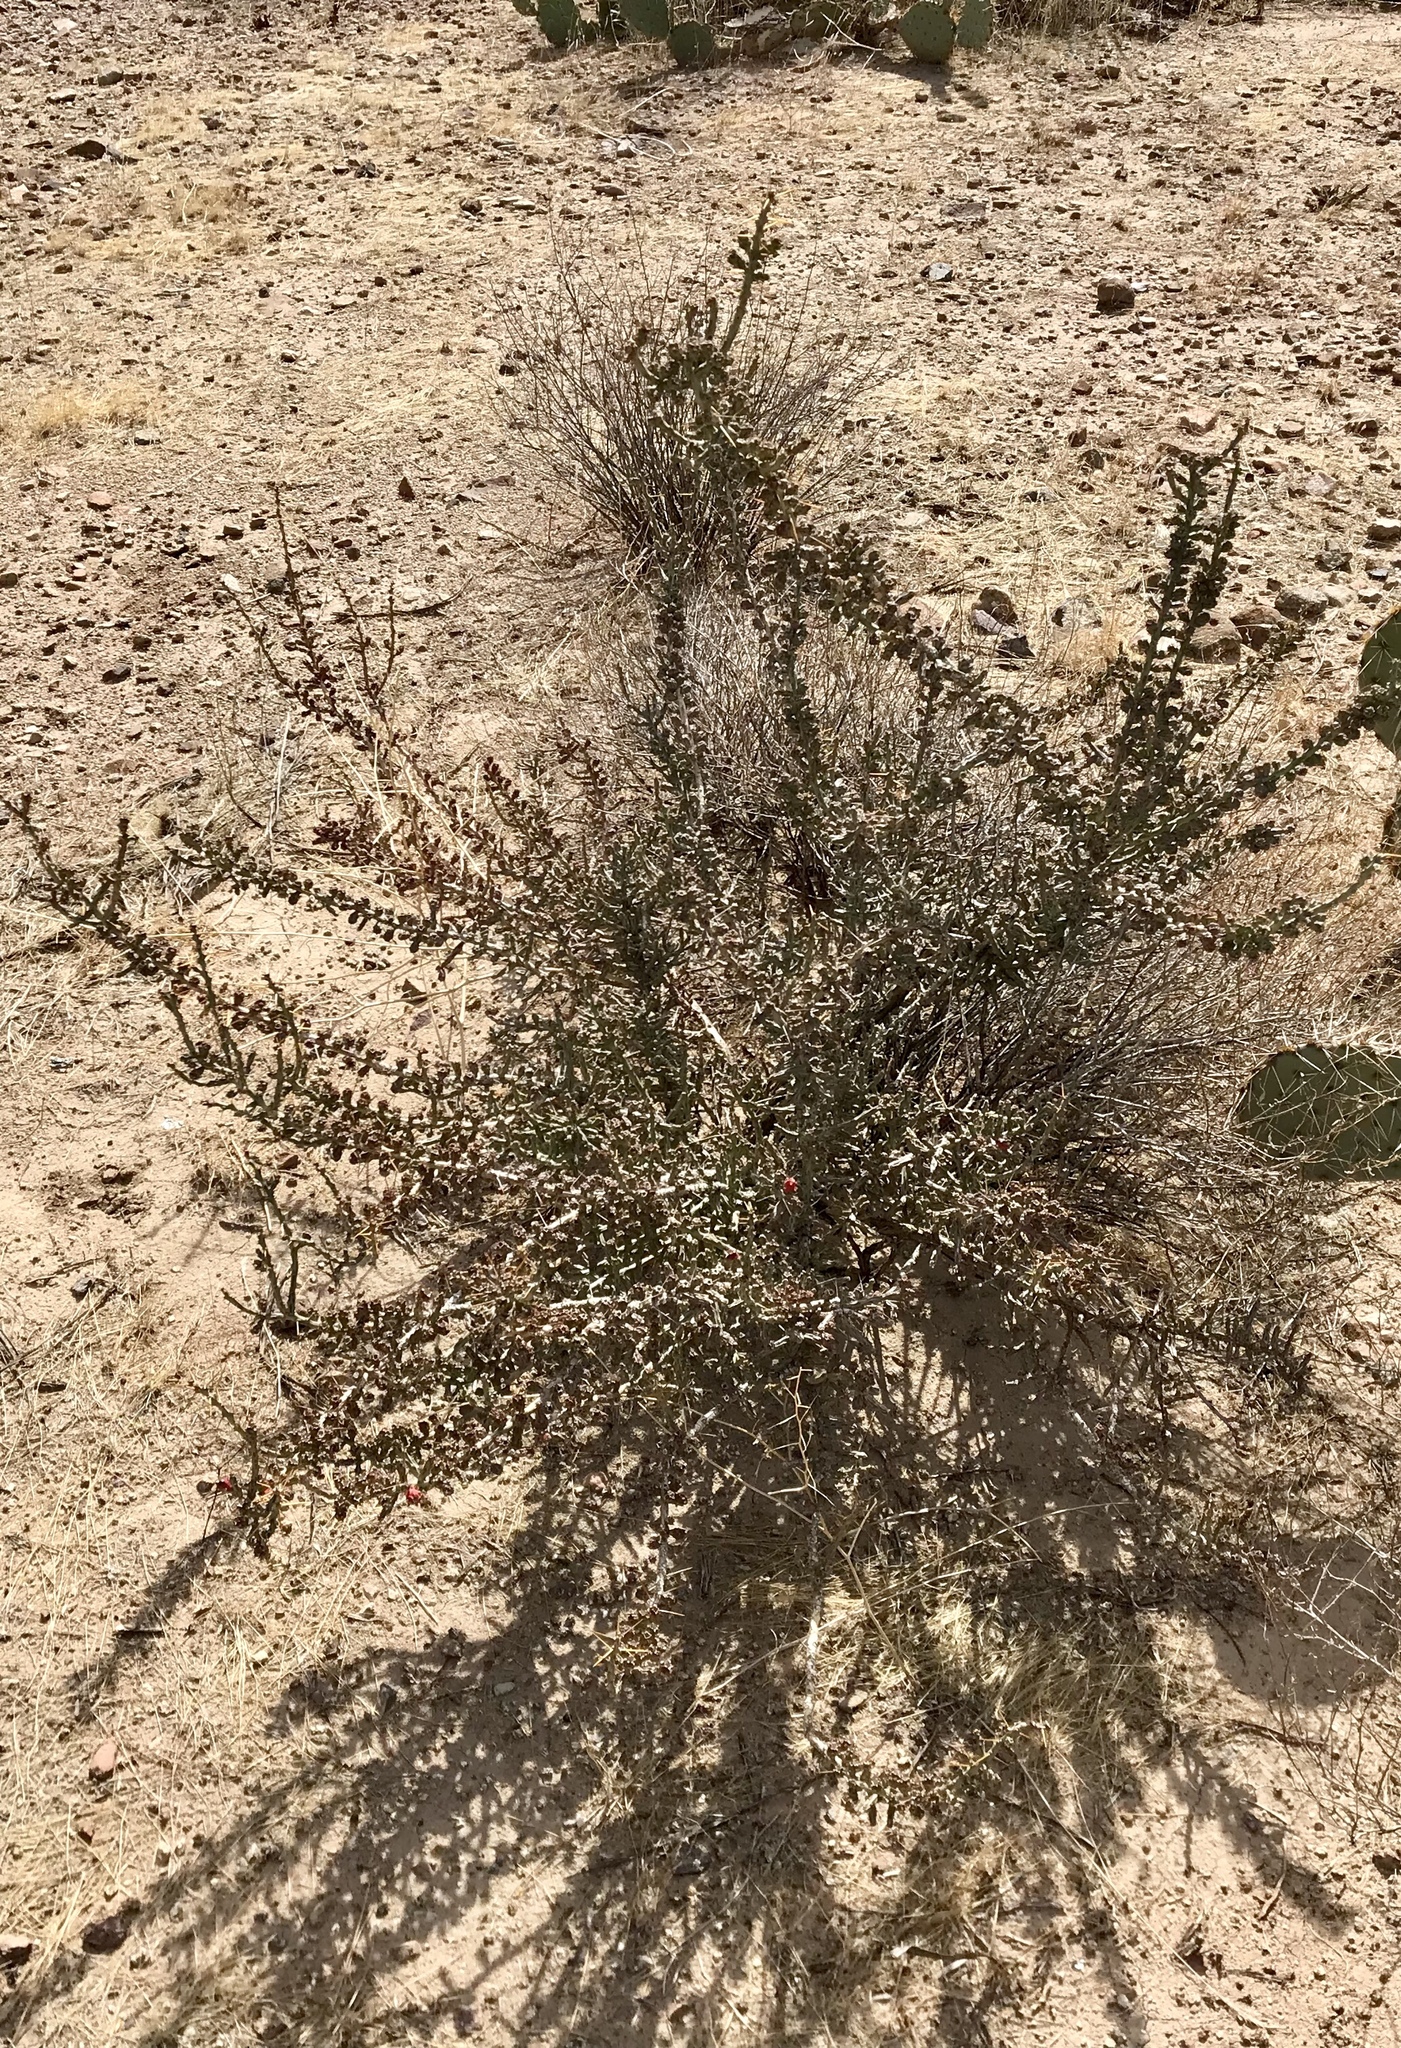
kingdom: Plantae
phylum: Tracheophyta
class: Magnoliopsida
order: Caryophyllales
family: Cactaceae
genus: Cylindropuntia
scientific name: Cylindropuntia leptocaulis
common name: Christmas cactus
